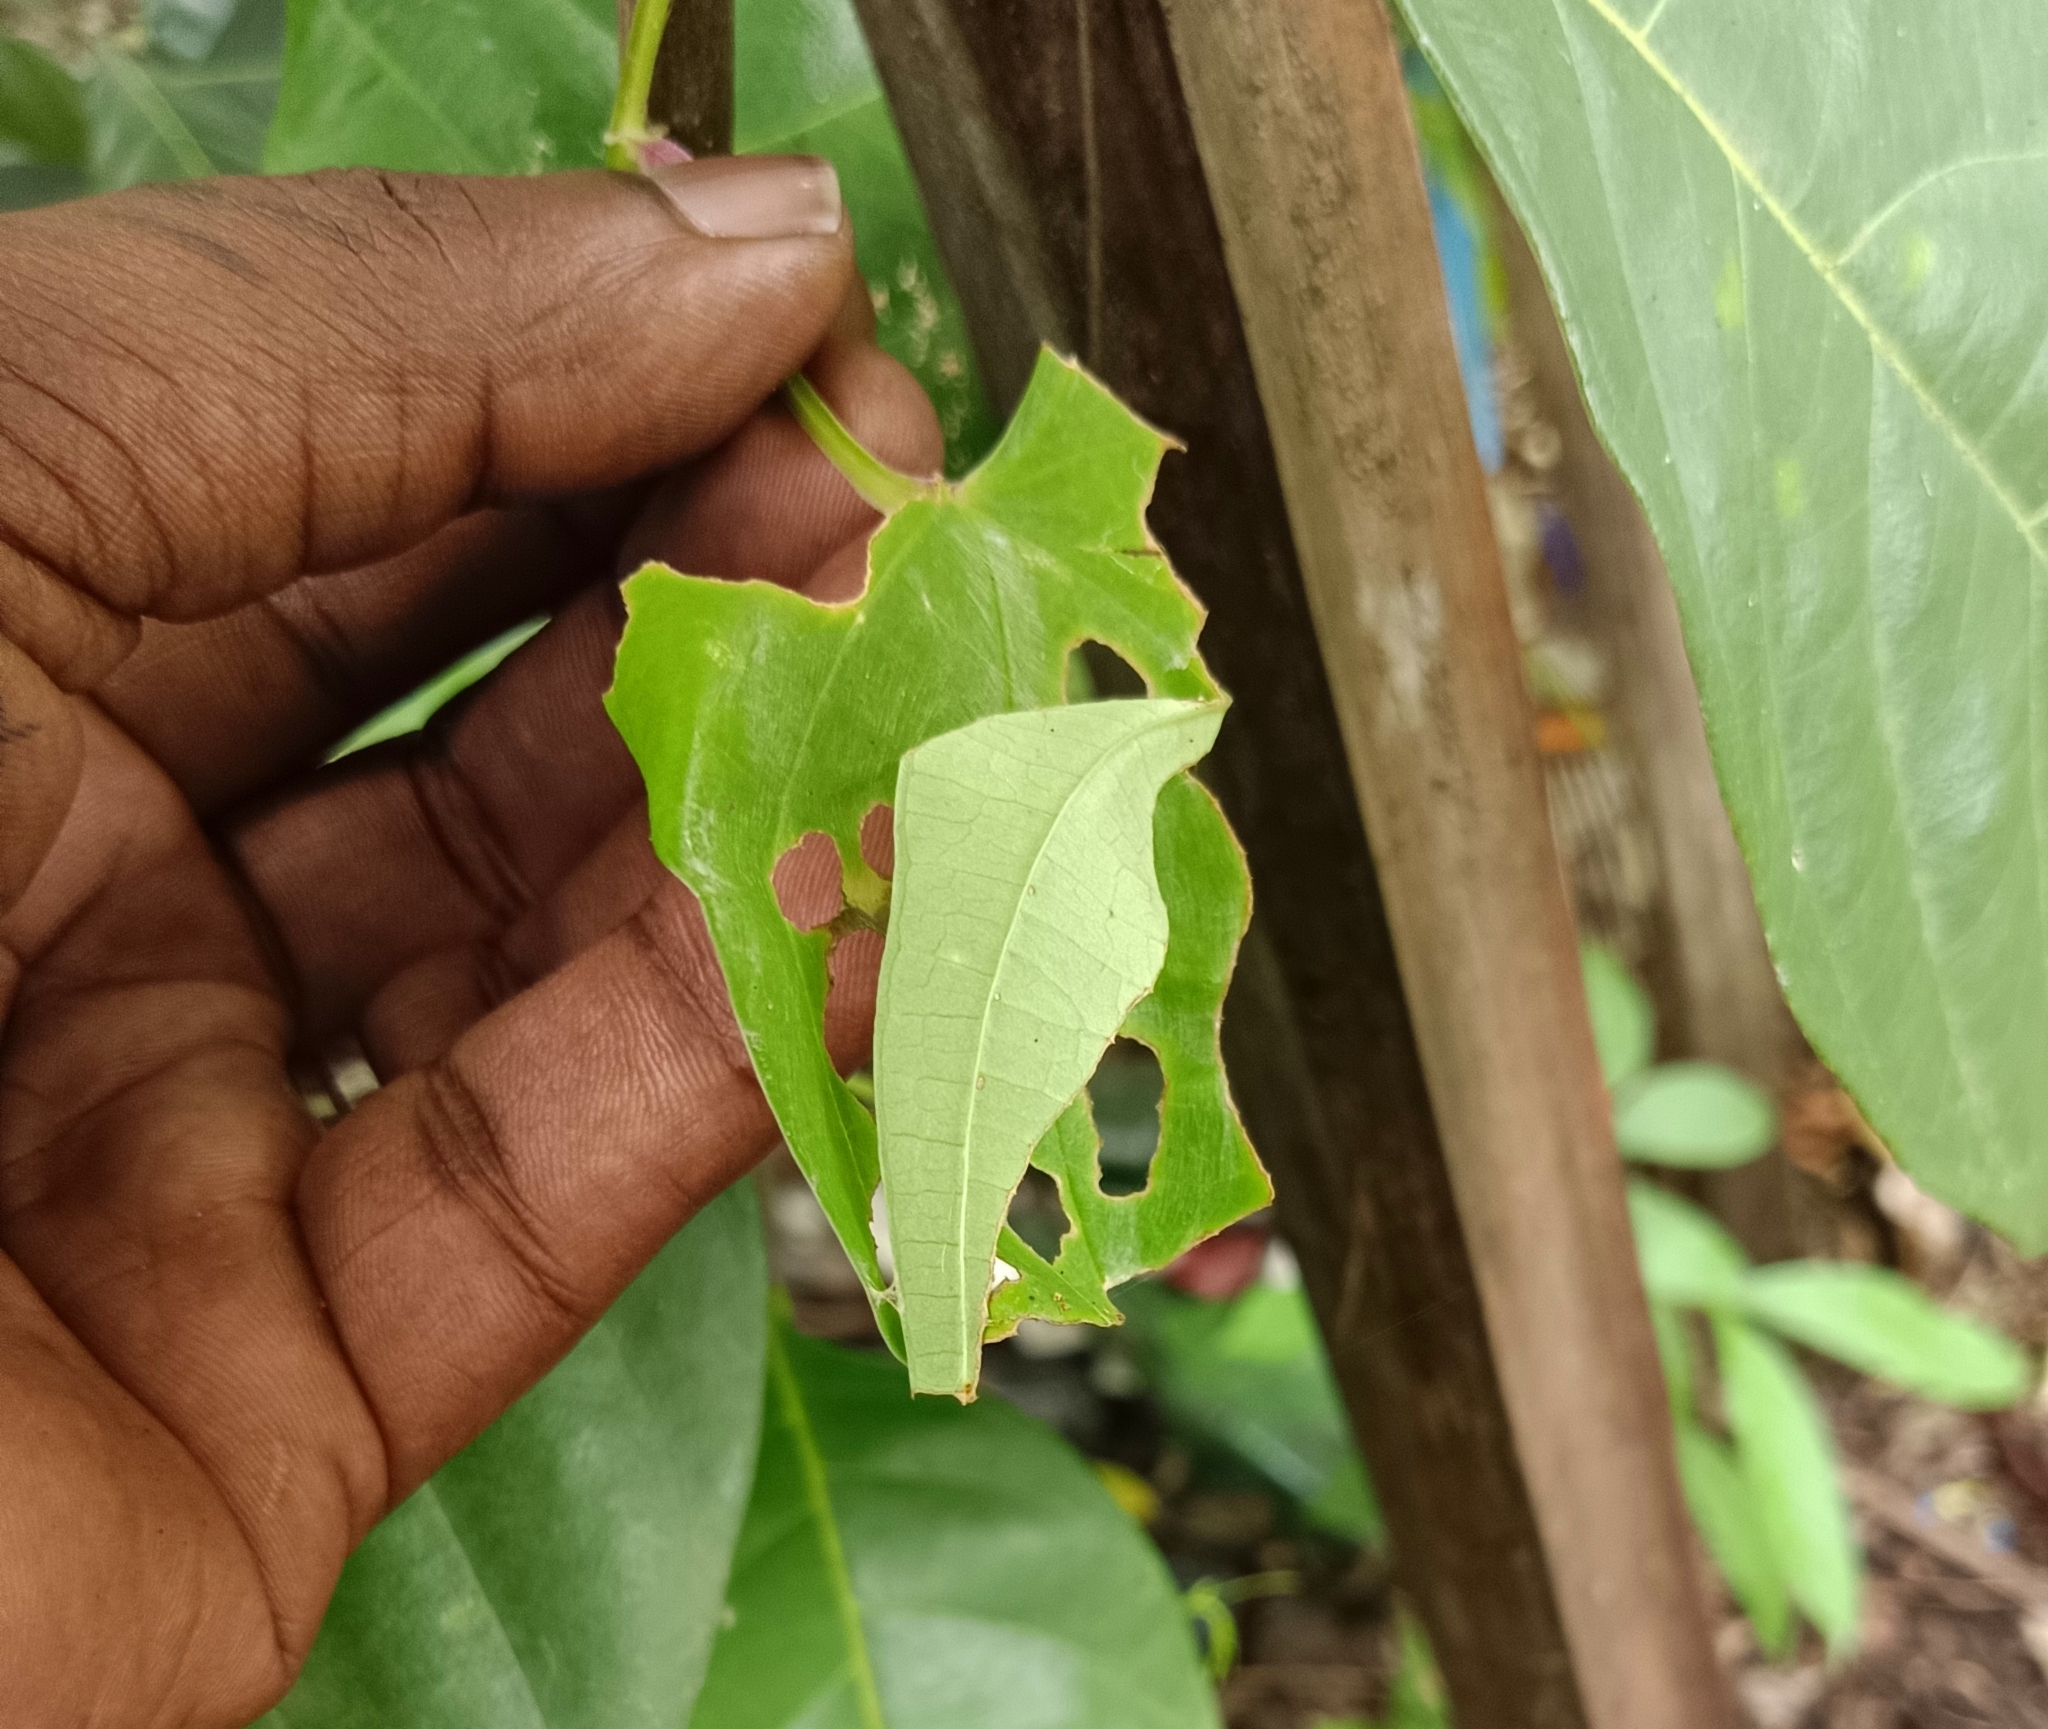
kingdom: Animalia
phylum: Arthropoda
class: Insecta
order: Lepidoptera
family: Hesperiidae
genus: Tagiades
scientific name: Tagiades litigiosa
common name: Water snow flat
